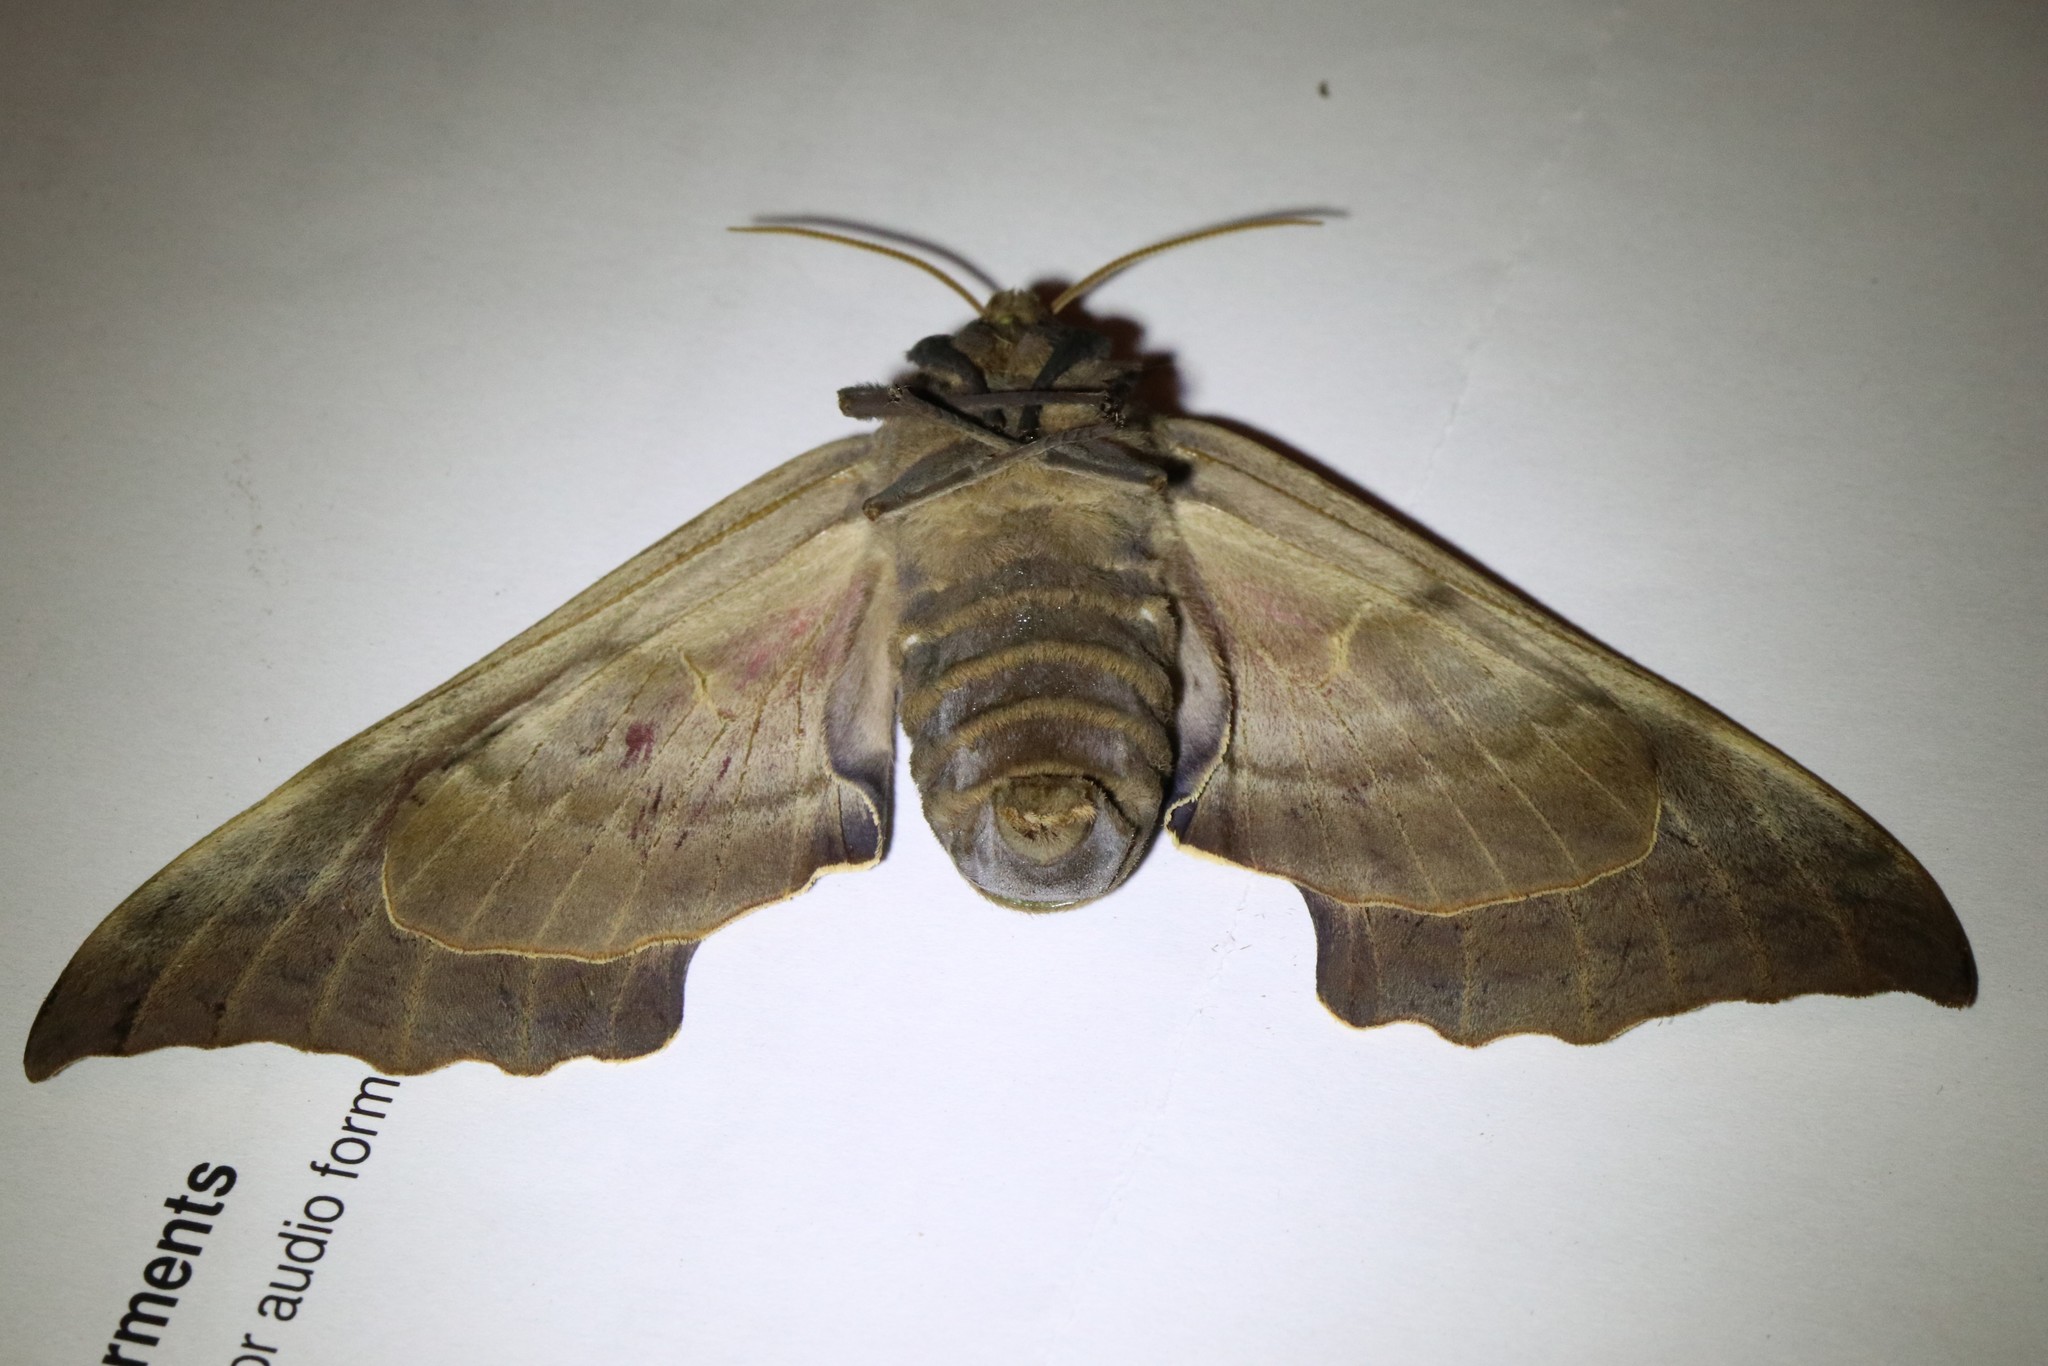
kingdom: Animalia
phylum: Arthropoda
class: Insecta
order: Lepidoptera
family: Sphingidae
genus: Pachysphinx
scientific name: Pachysphinx modesta
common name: Big poplar sphinx
